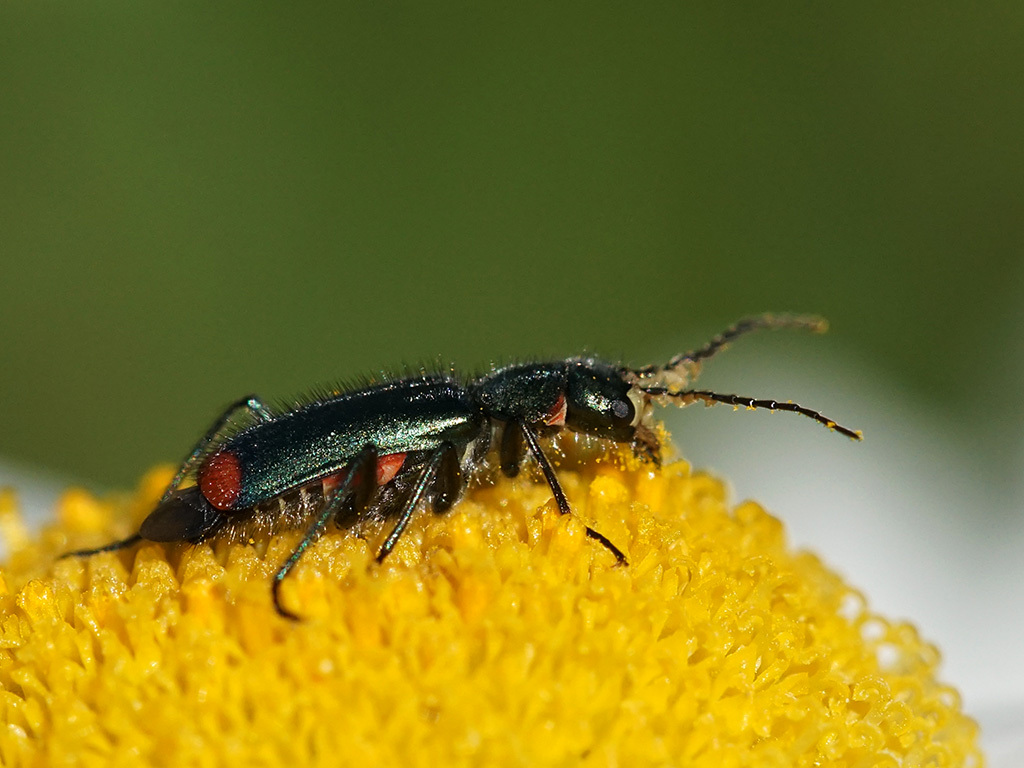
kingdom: Animalia
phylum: Arthropoda
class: Insecta
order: Coleoptera
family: Melyridae
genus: Malachius
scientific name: Malachius bipustulatus
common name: Malachite beetle
